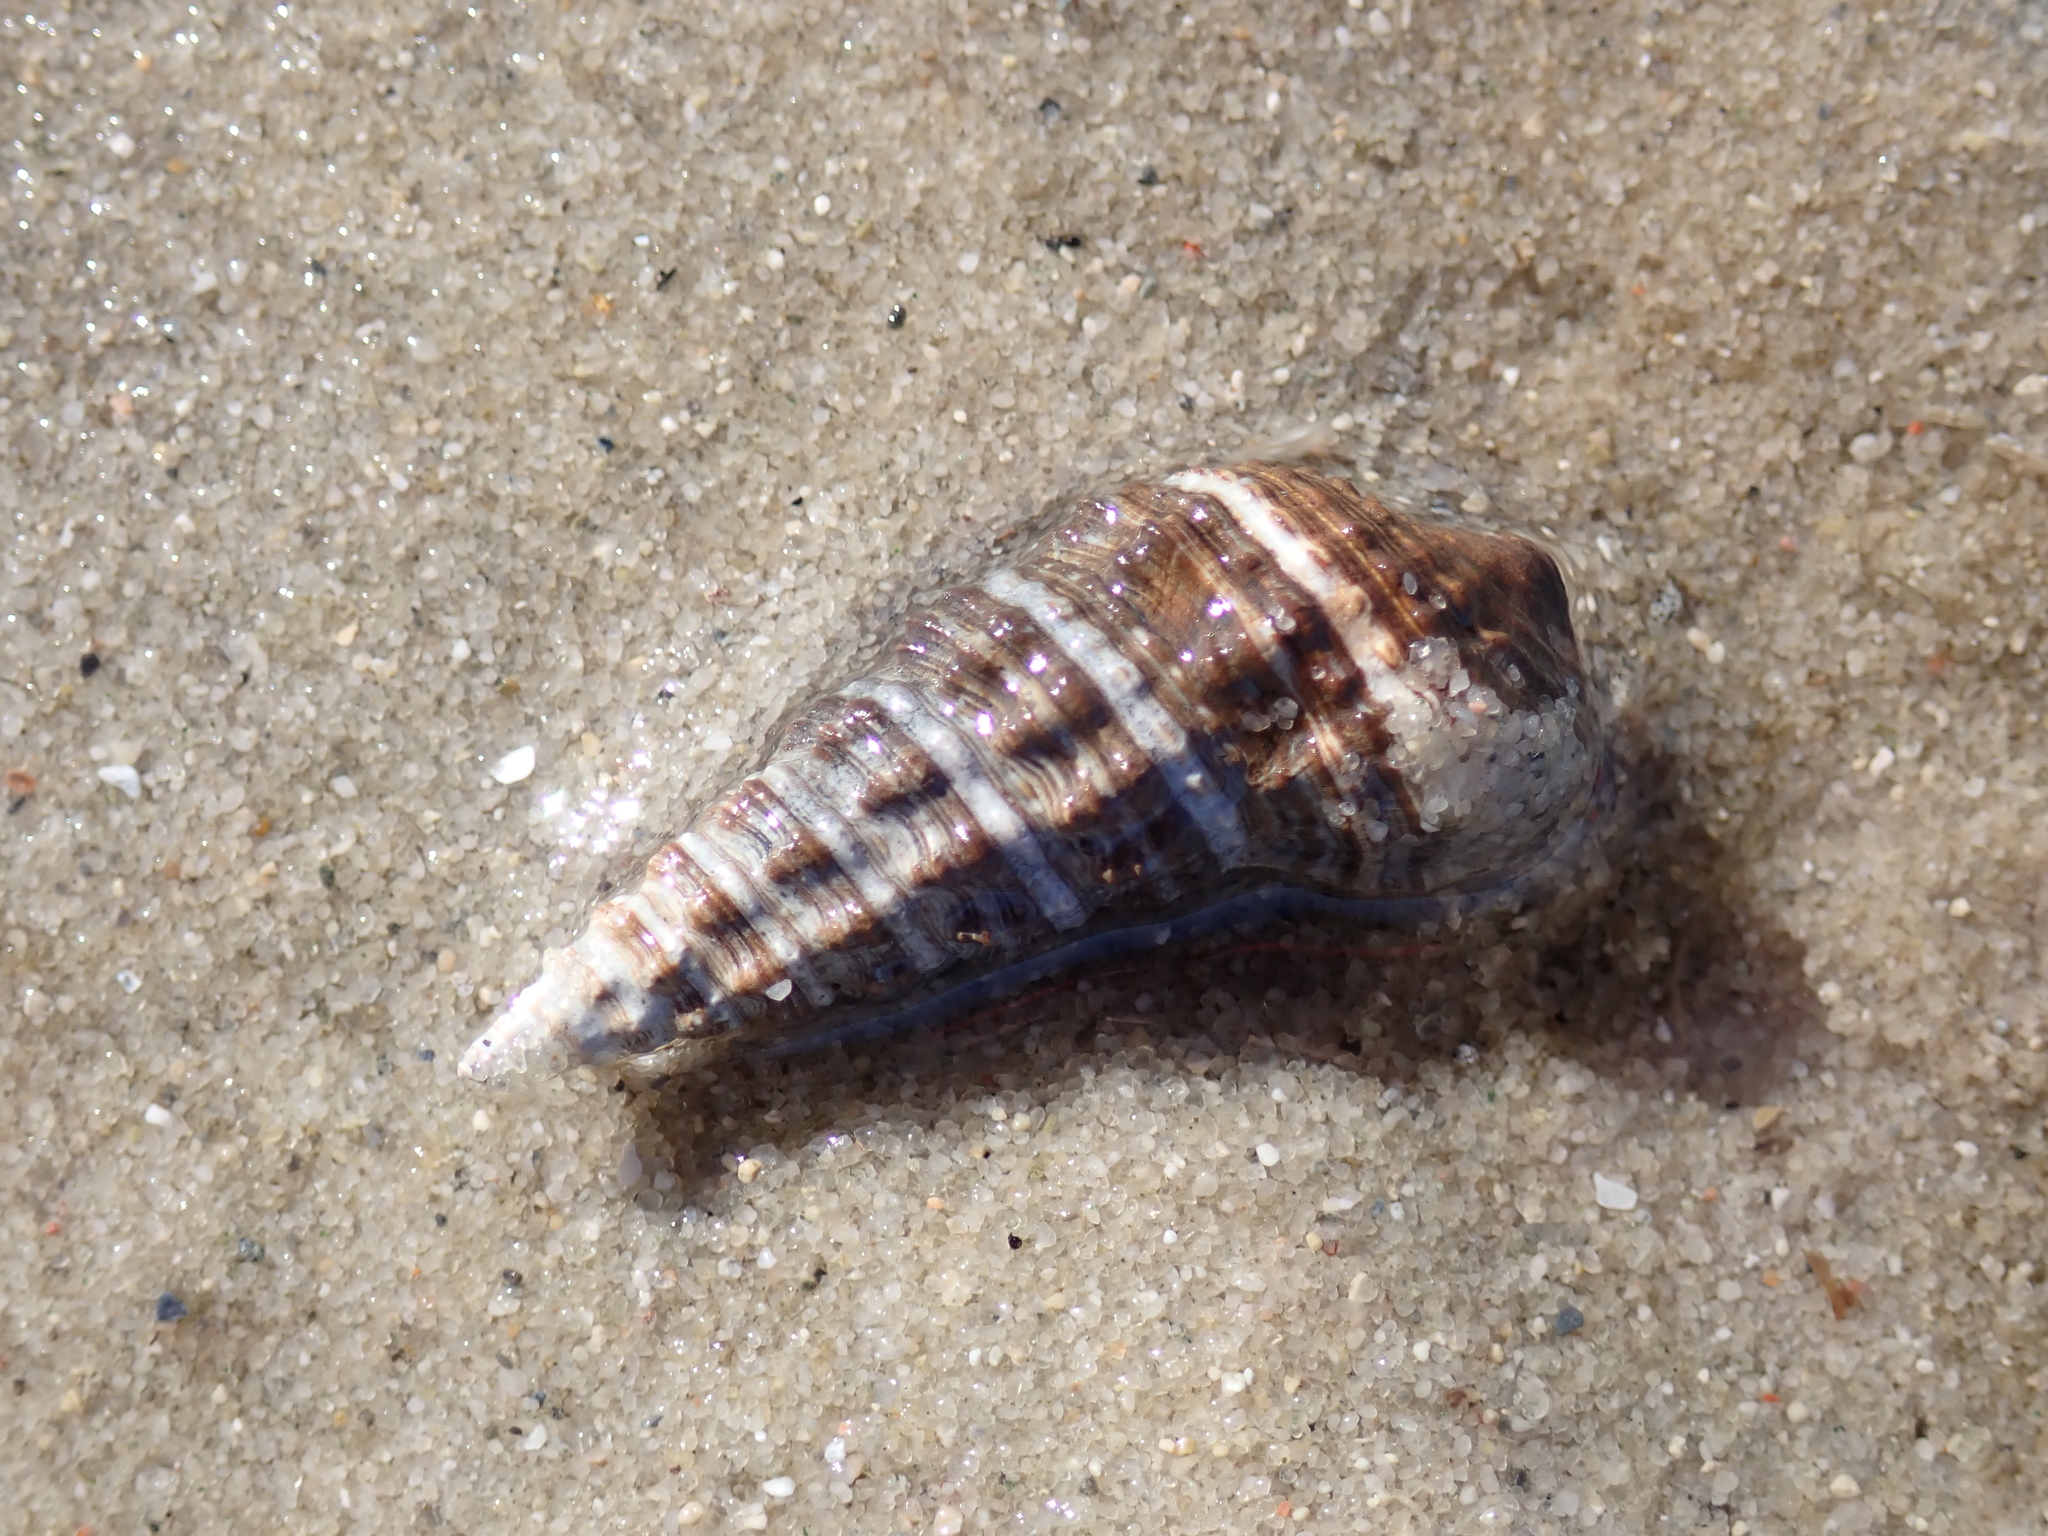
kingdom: Animalia
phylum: Mollusca
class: Gastropoda
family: Batillariidae
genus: Batillaria
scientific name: Batillaria australis
